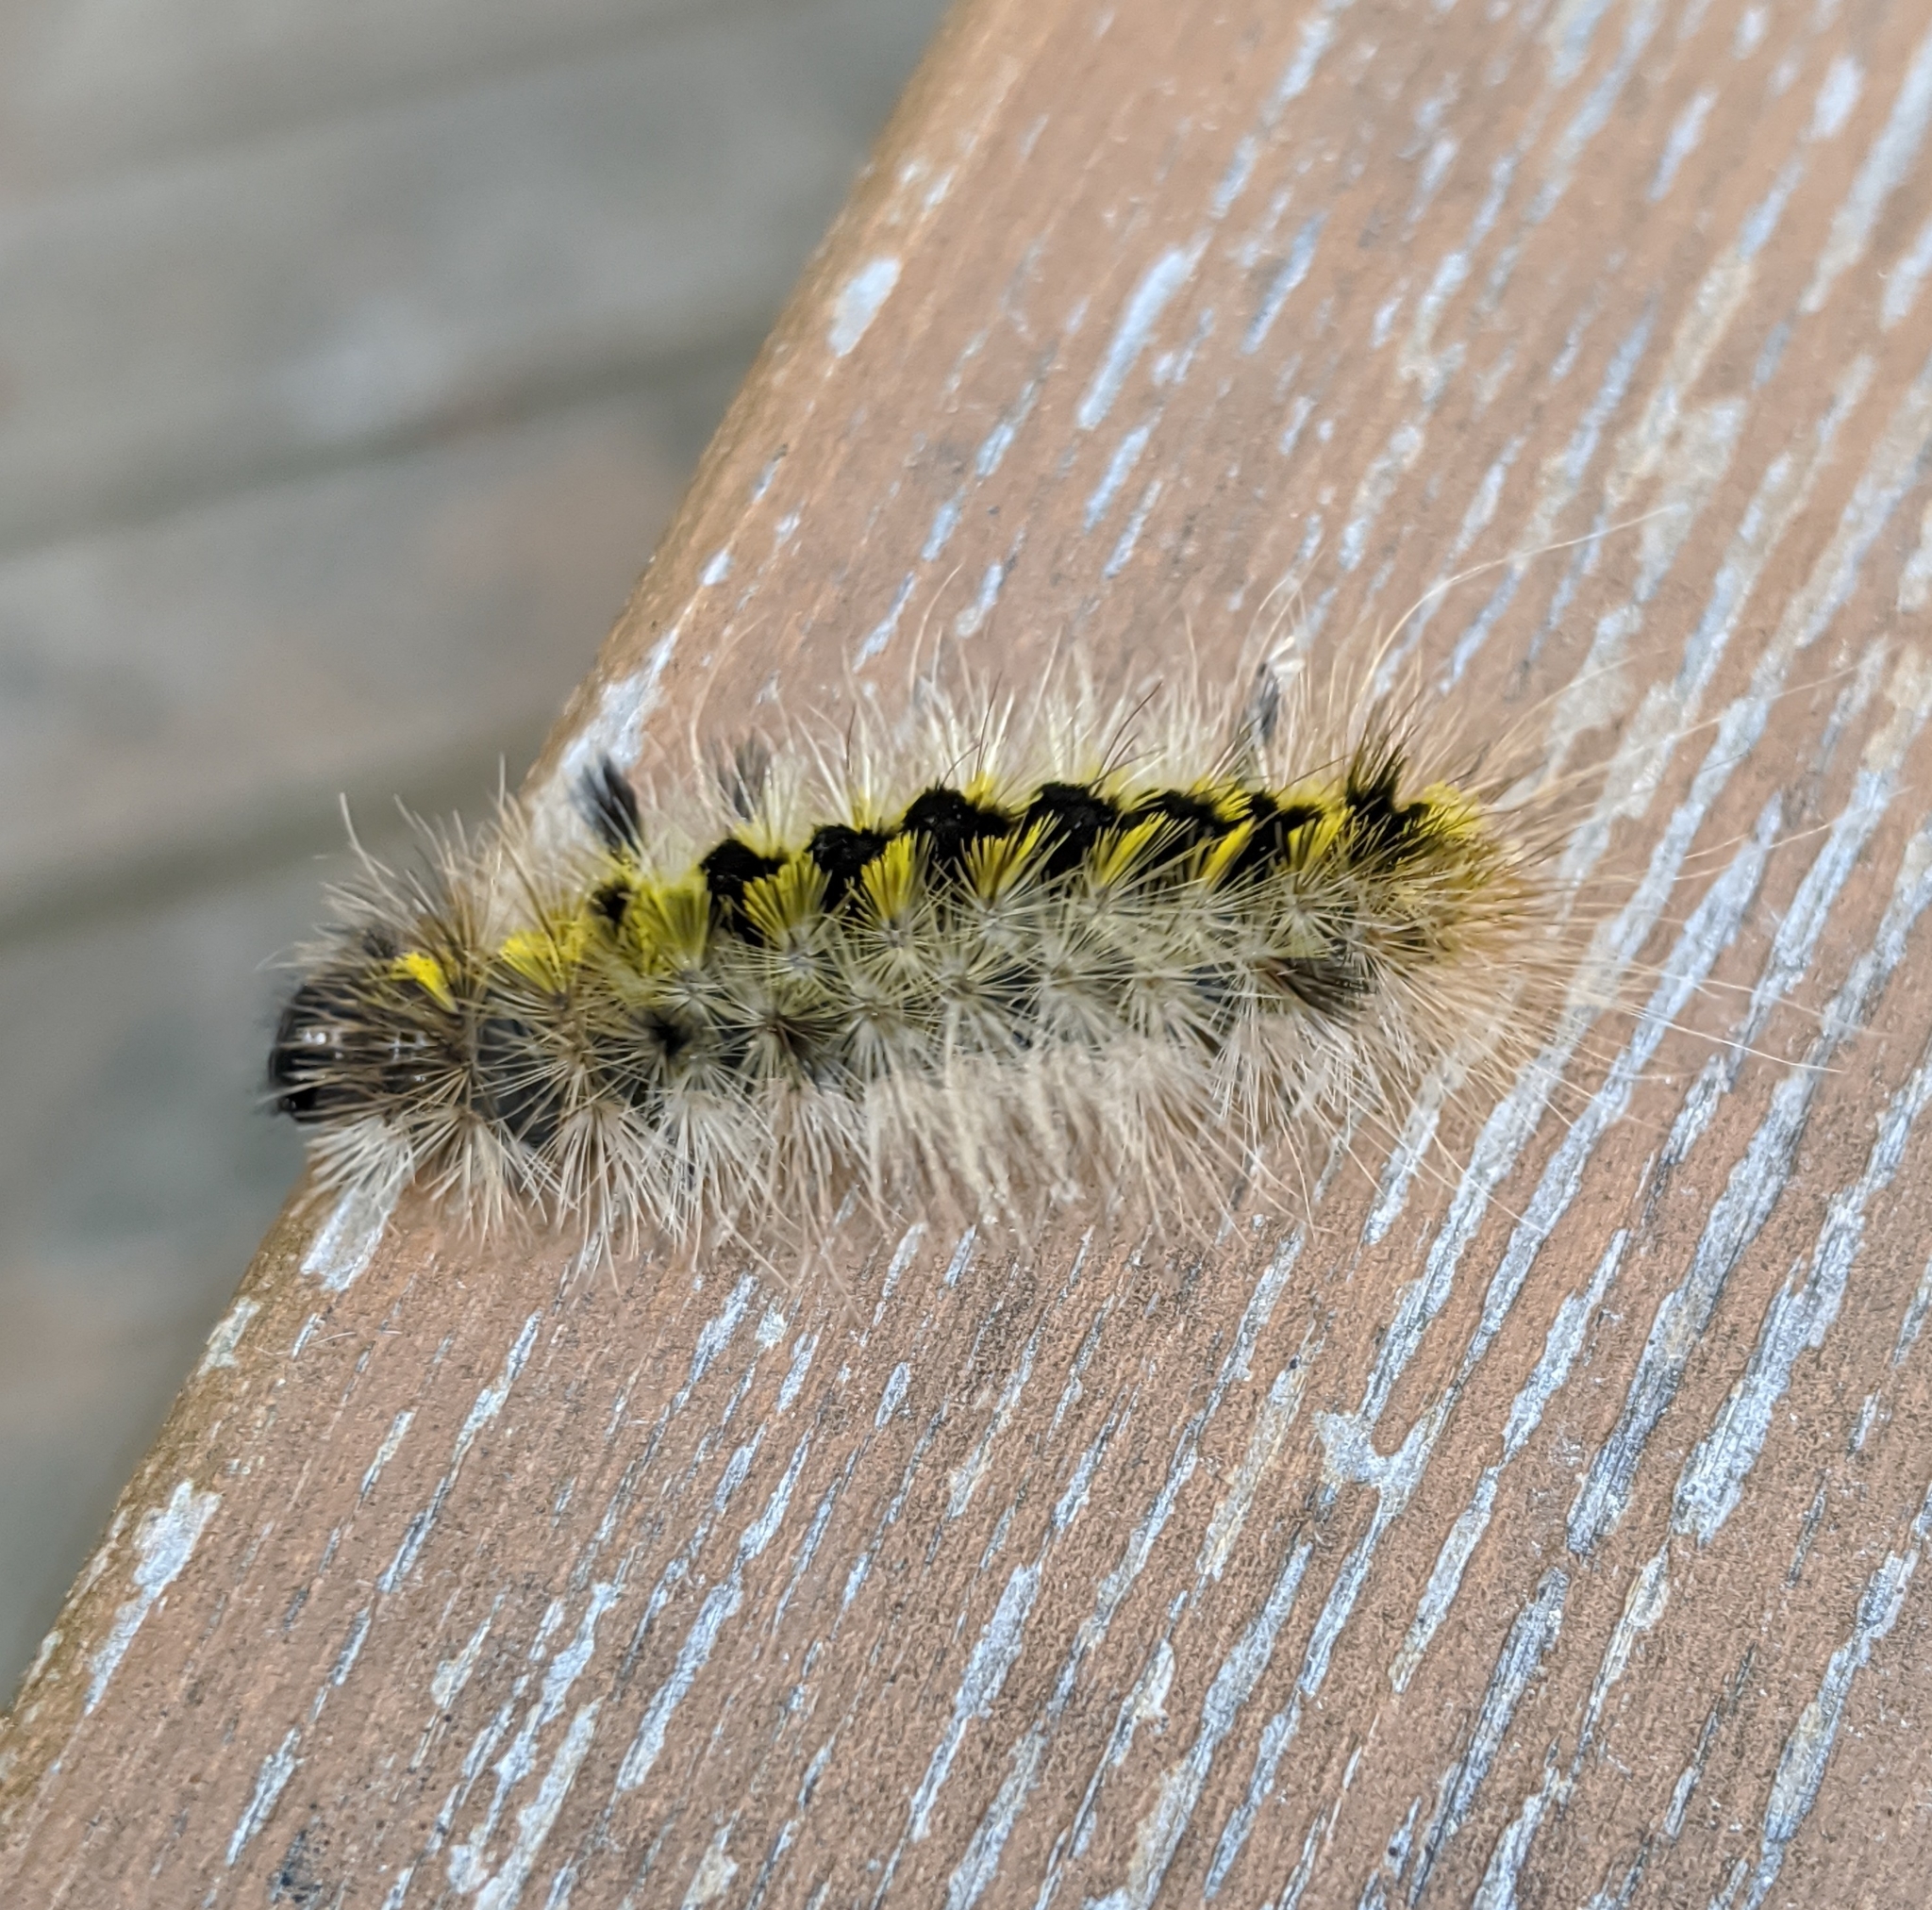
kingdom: Animalia
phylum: Arthropoda
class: Insecta
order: Lepidoptera
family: Erebidae
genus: Lophocampa
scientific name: Lophocampa argentata
